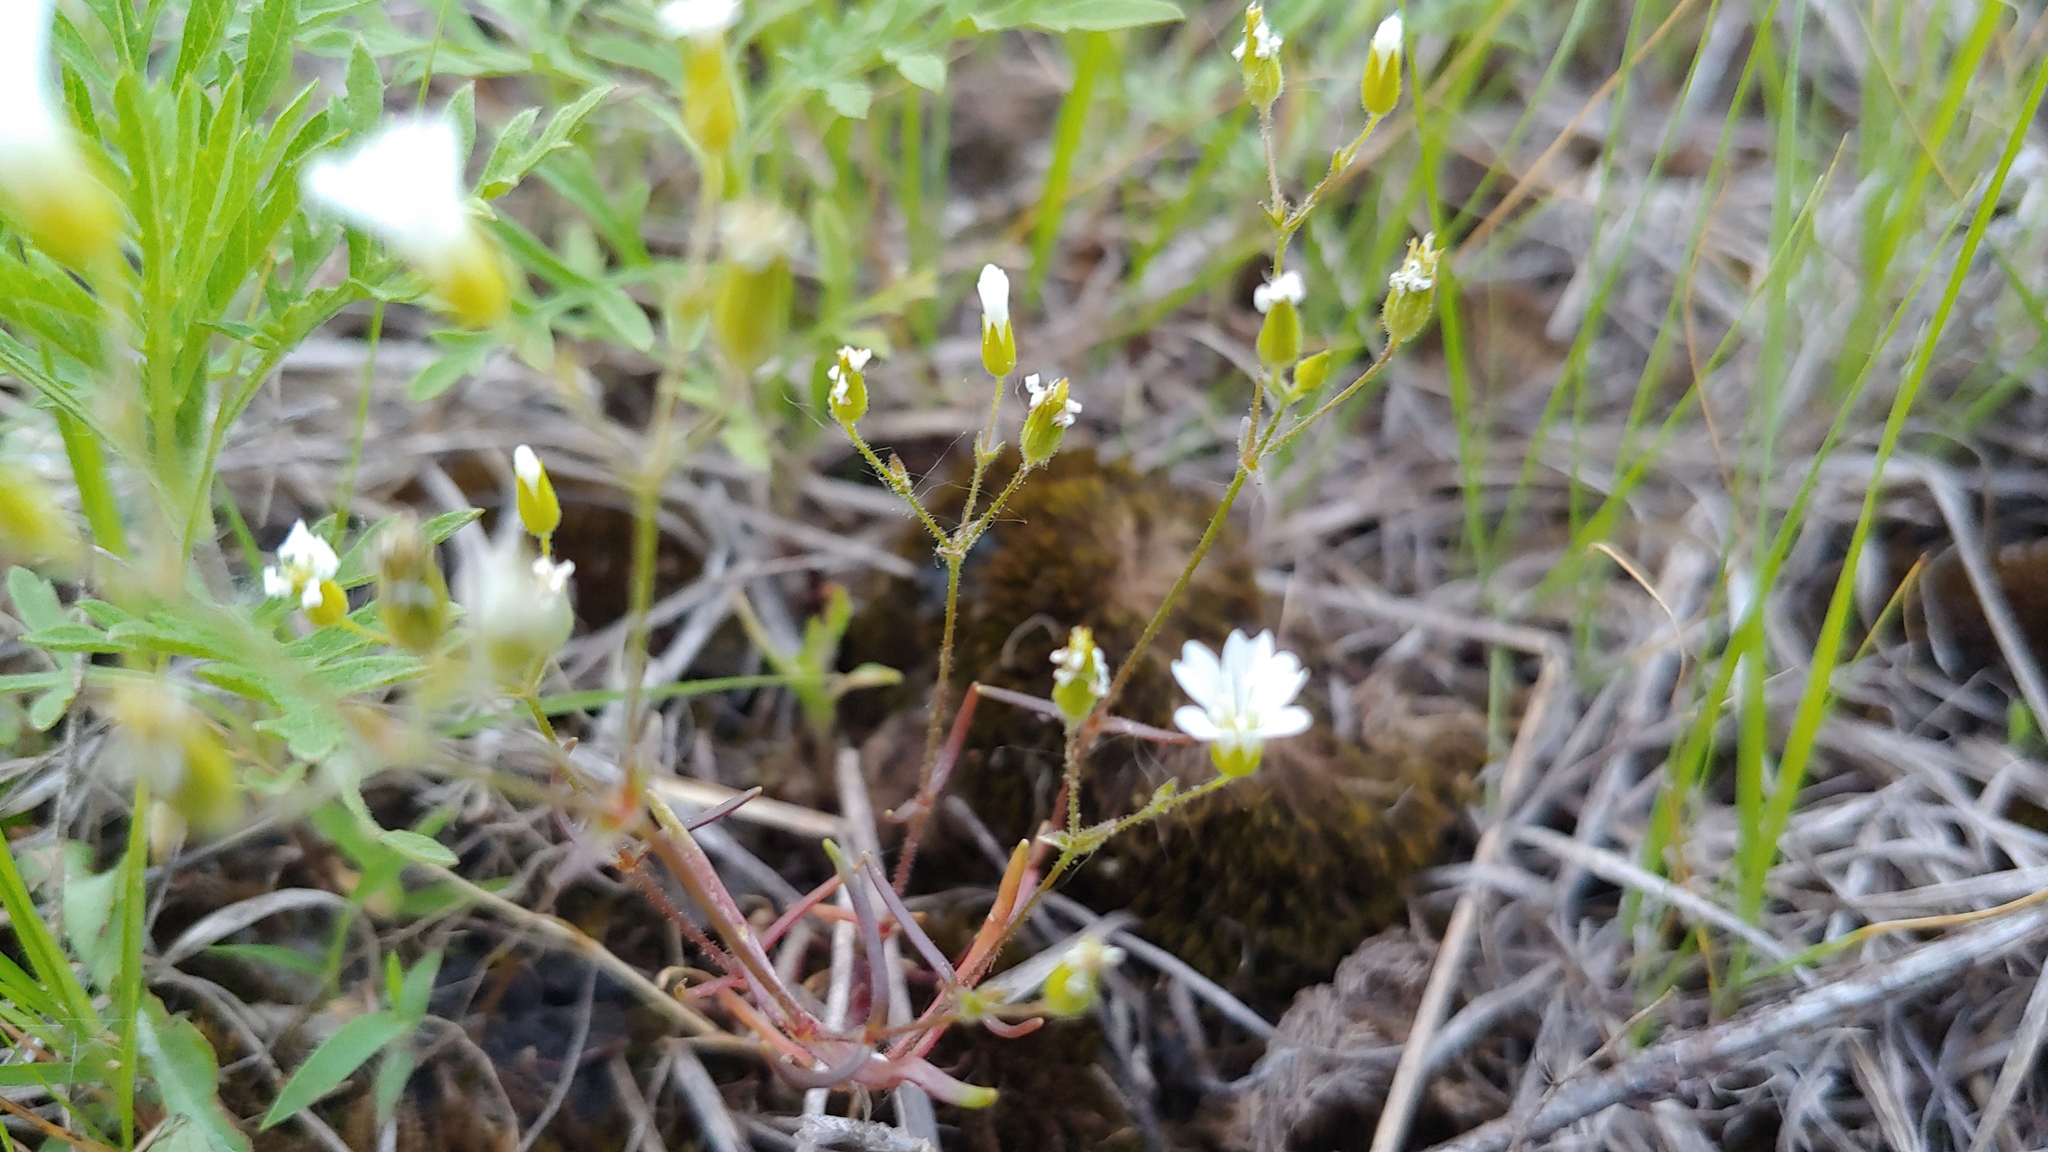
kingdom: Plantae
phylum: Tracheophyta
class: Magnoliopsida
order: Caryophyllales
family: Caryophyllaceae
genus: Mononeuria
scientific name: Mononeuria patula
